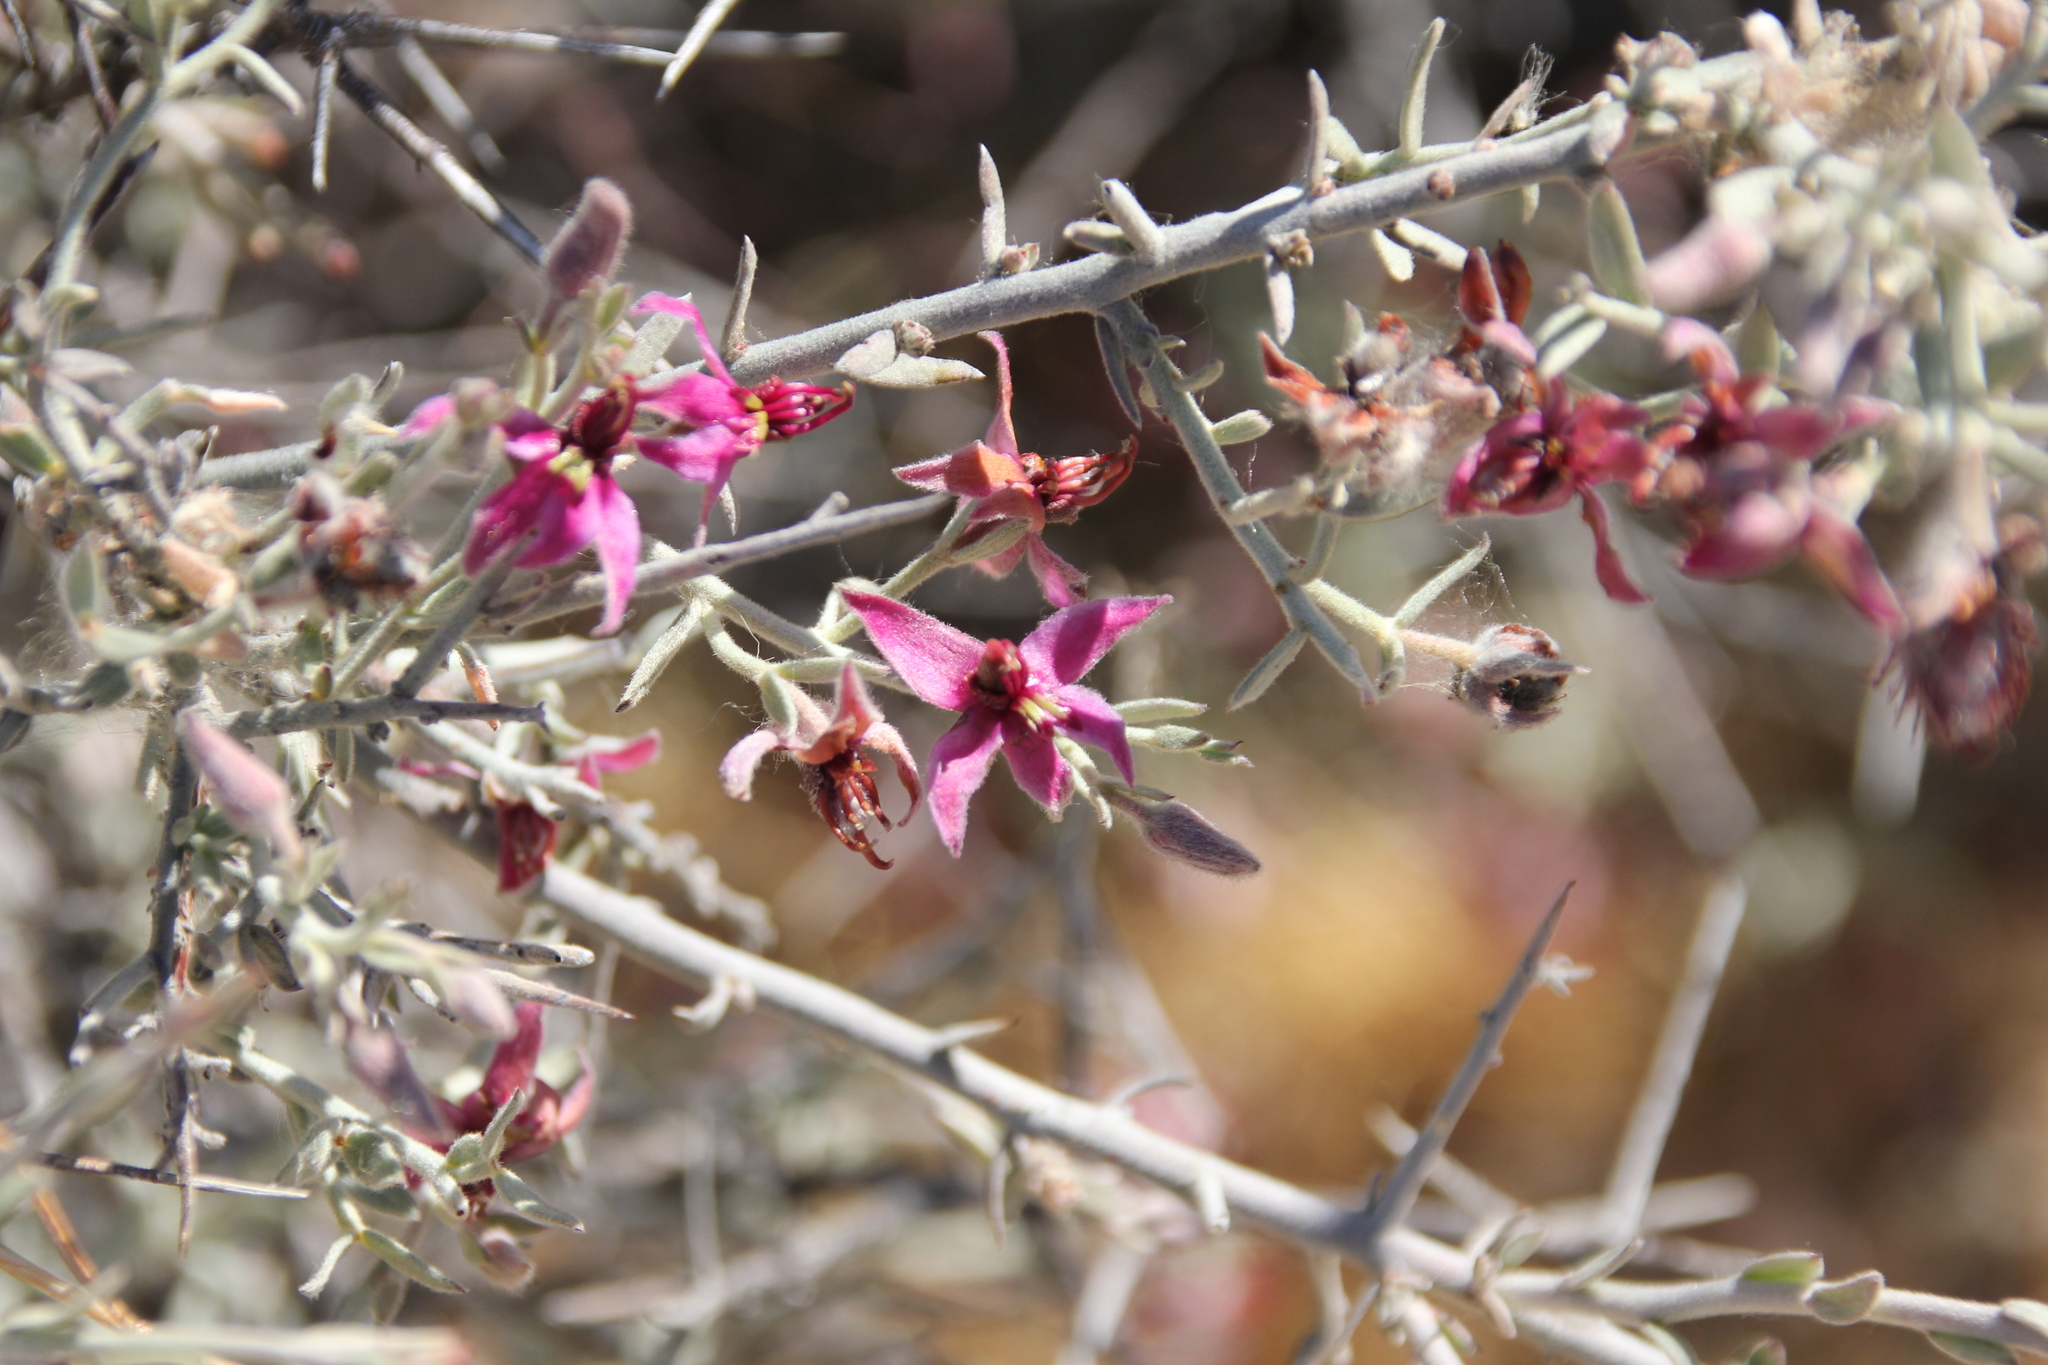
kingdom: Plantae
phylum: Tracheophyta
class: Magnoliopsida
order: Zygophyllales
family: Krameriaceae
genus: Krameria
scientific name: Krameria bicolor
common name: White ratany
